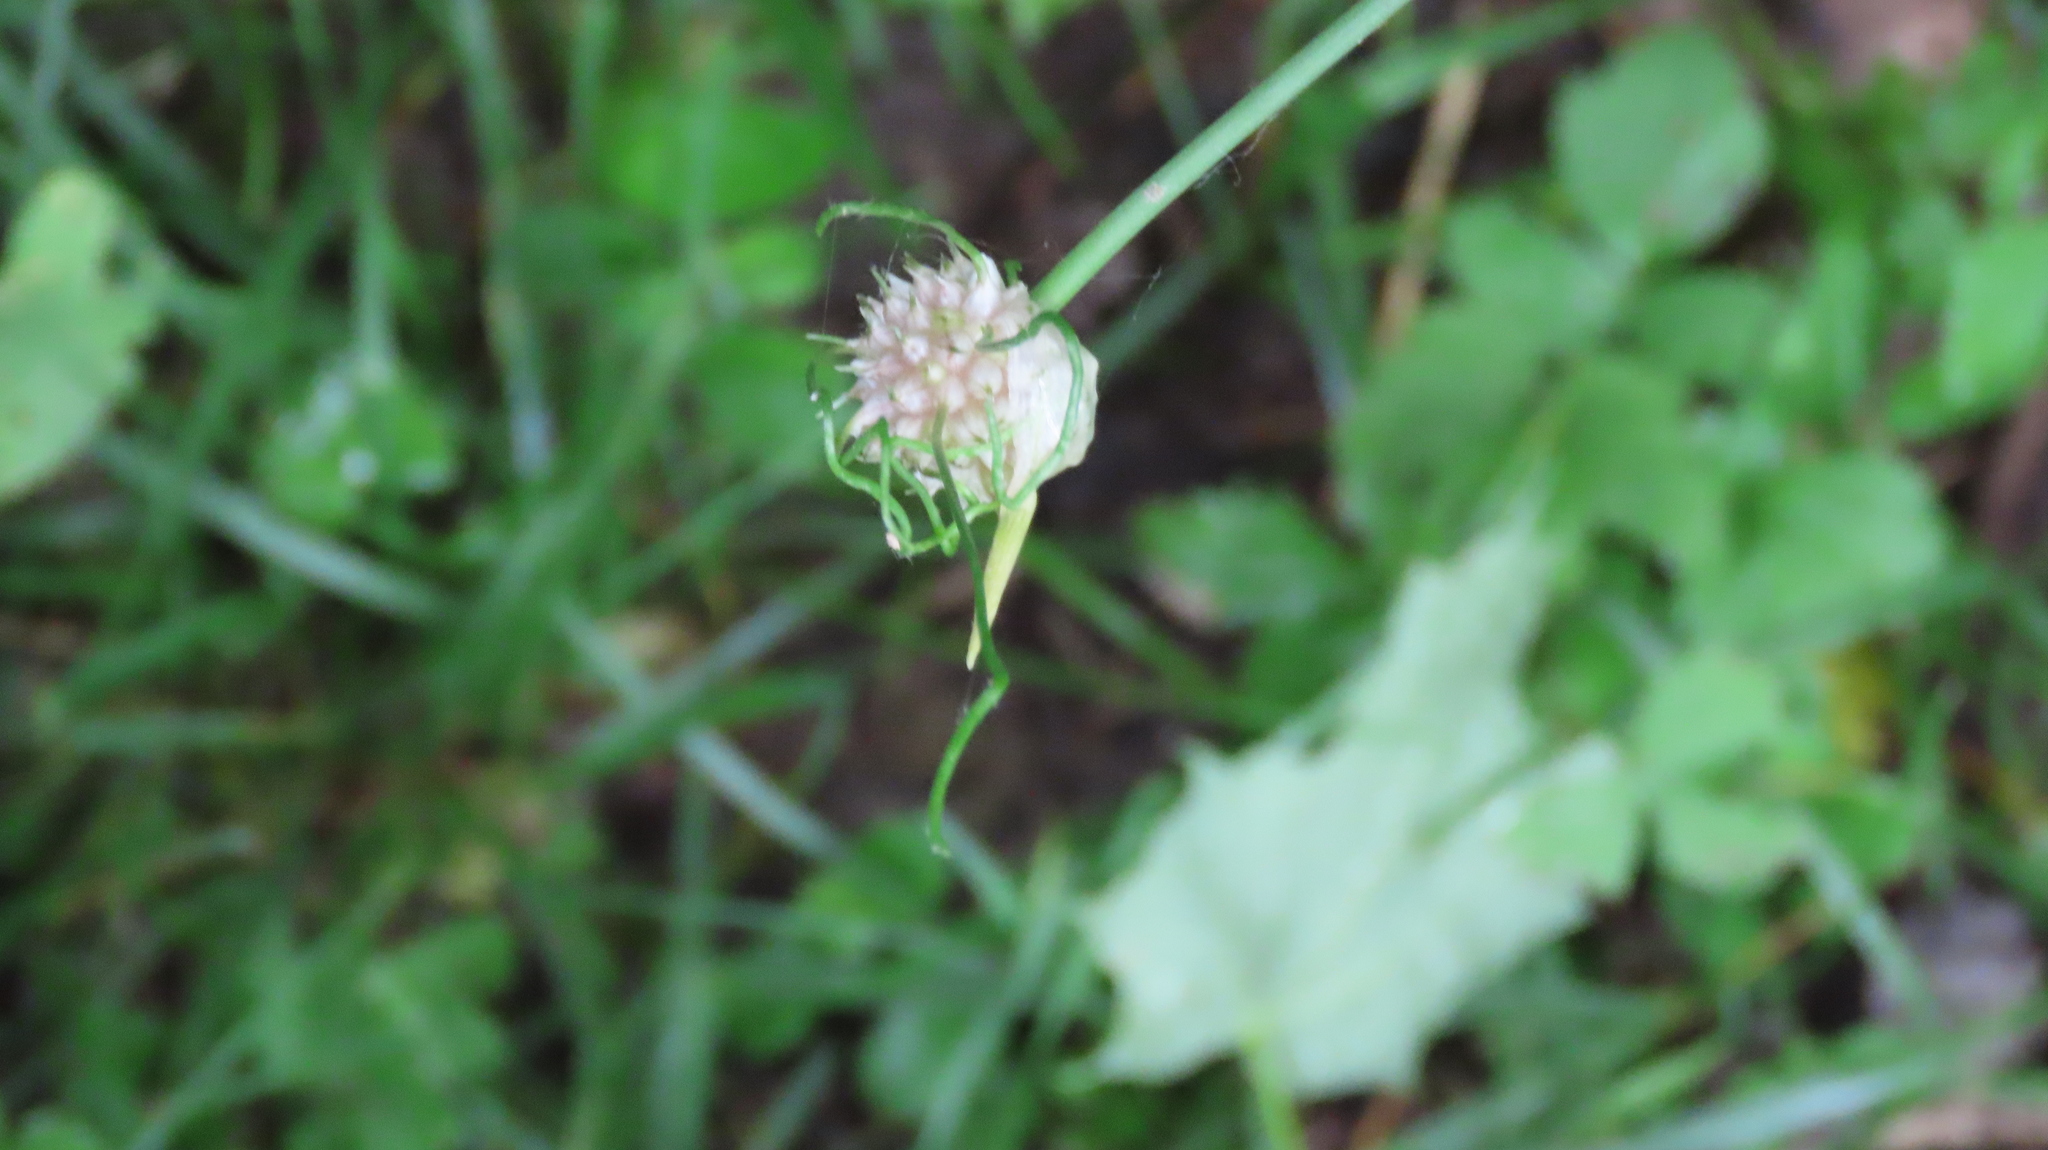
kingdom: Plantae
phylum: Tracheophyta
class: Liliopsida
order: Asparagales
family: Amaryllidaceae
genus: Allium
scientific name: Allium vineale
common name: Crow garlic
